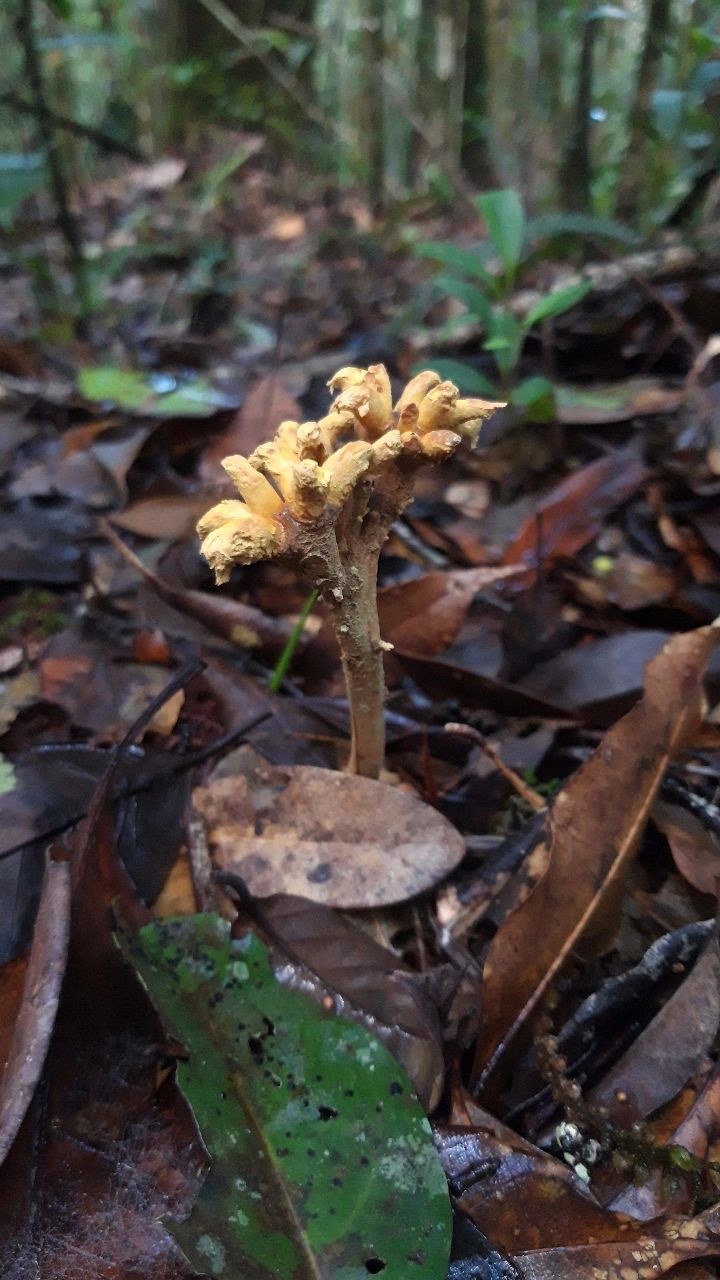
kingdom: Fungi
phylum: Ascomycota
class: Eurotiomycetes
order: Eurotiales
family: Aspergillaceae
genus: Dendrosphaera
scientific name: Dendrosphaera eberhardtii
